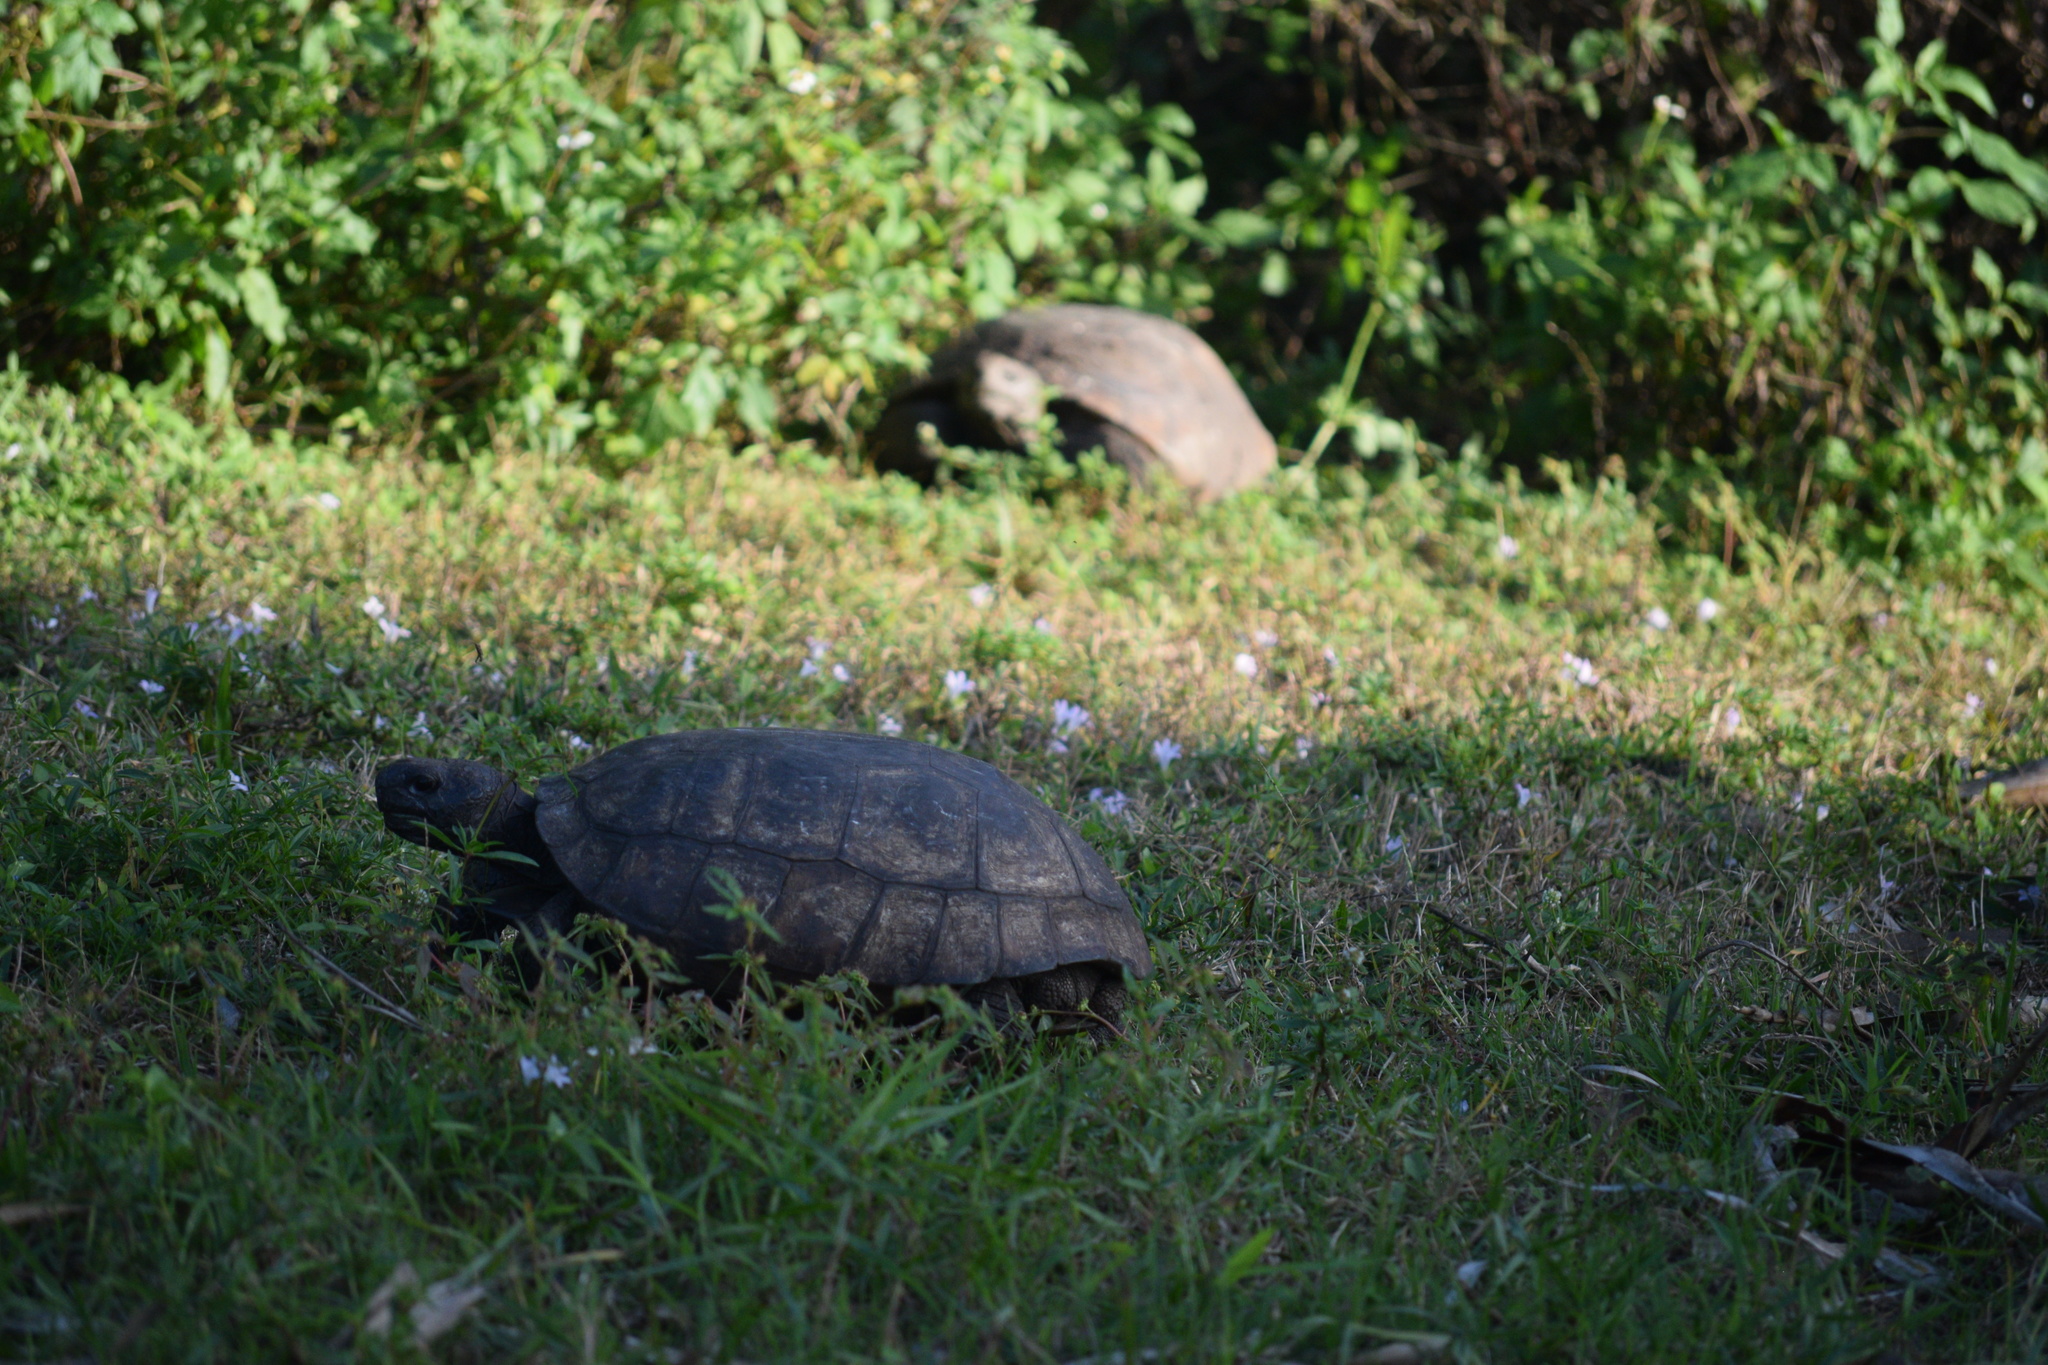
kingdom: Animalia
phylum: Chordata
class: Testudines
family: Testudinidae
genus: Gopherus
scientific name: Gopherus polyphemus
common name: Florida gopher tortoise
